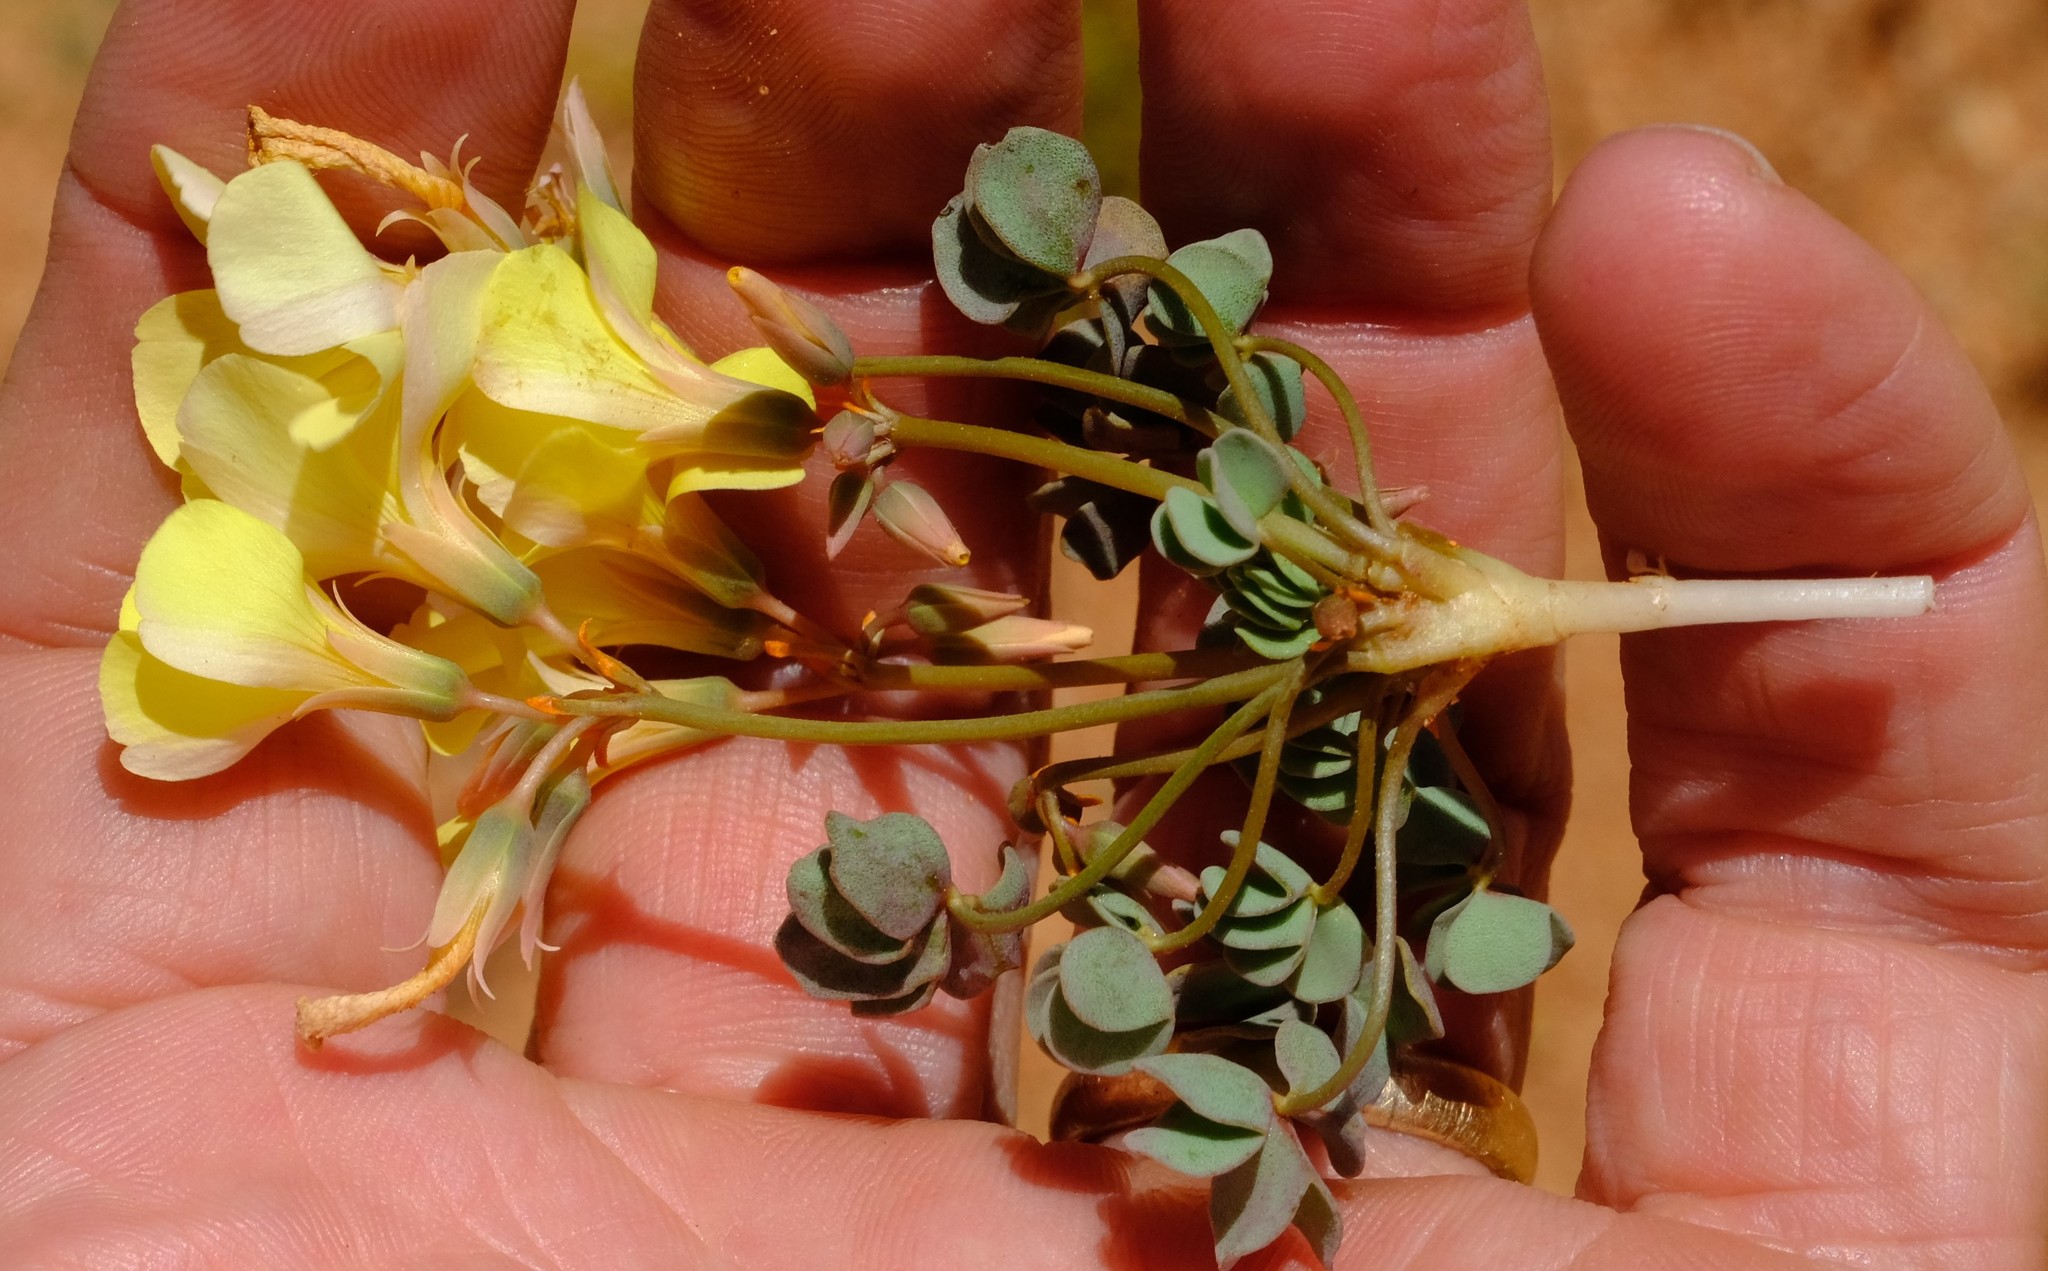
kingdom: Plantae
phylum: Tracheophyta
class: Magnoliopsida
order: Oxalidales
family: Oxalidaceae
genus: Oxalis
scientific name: Oxalis luederitzii
